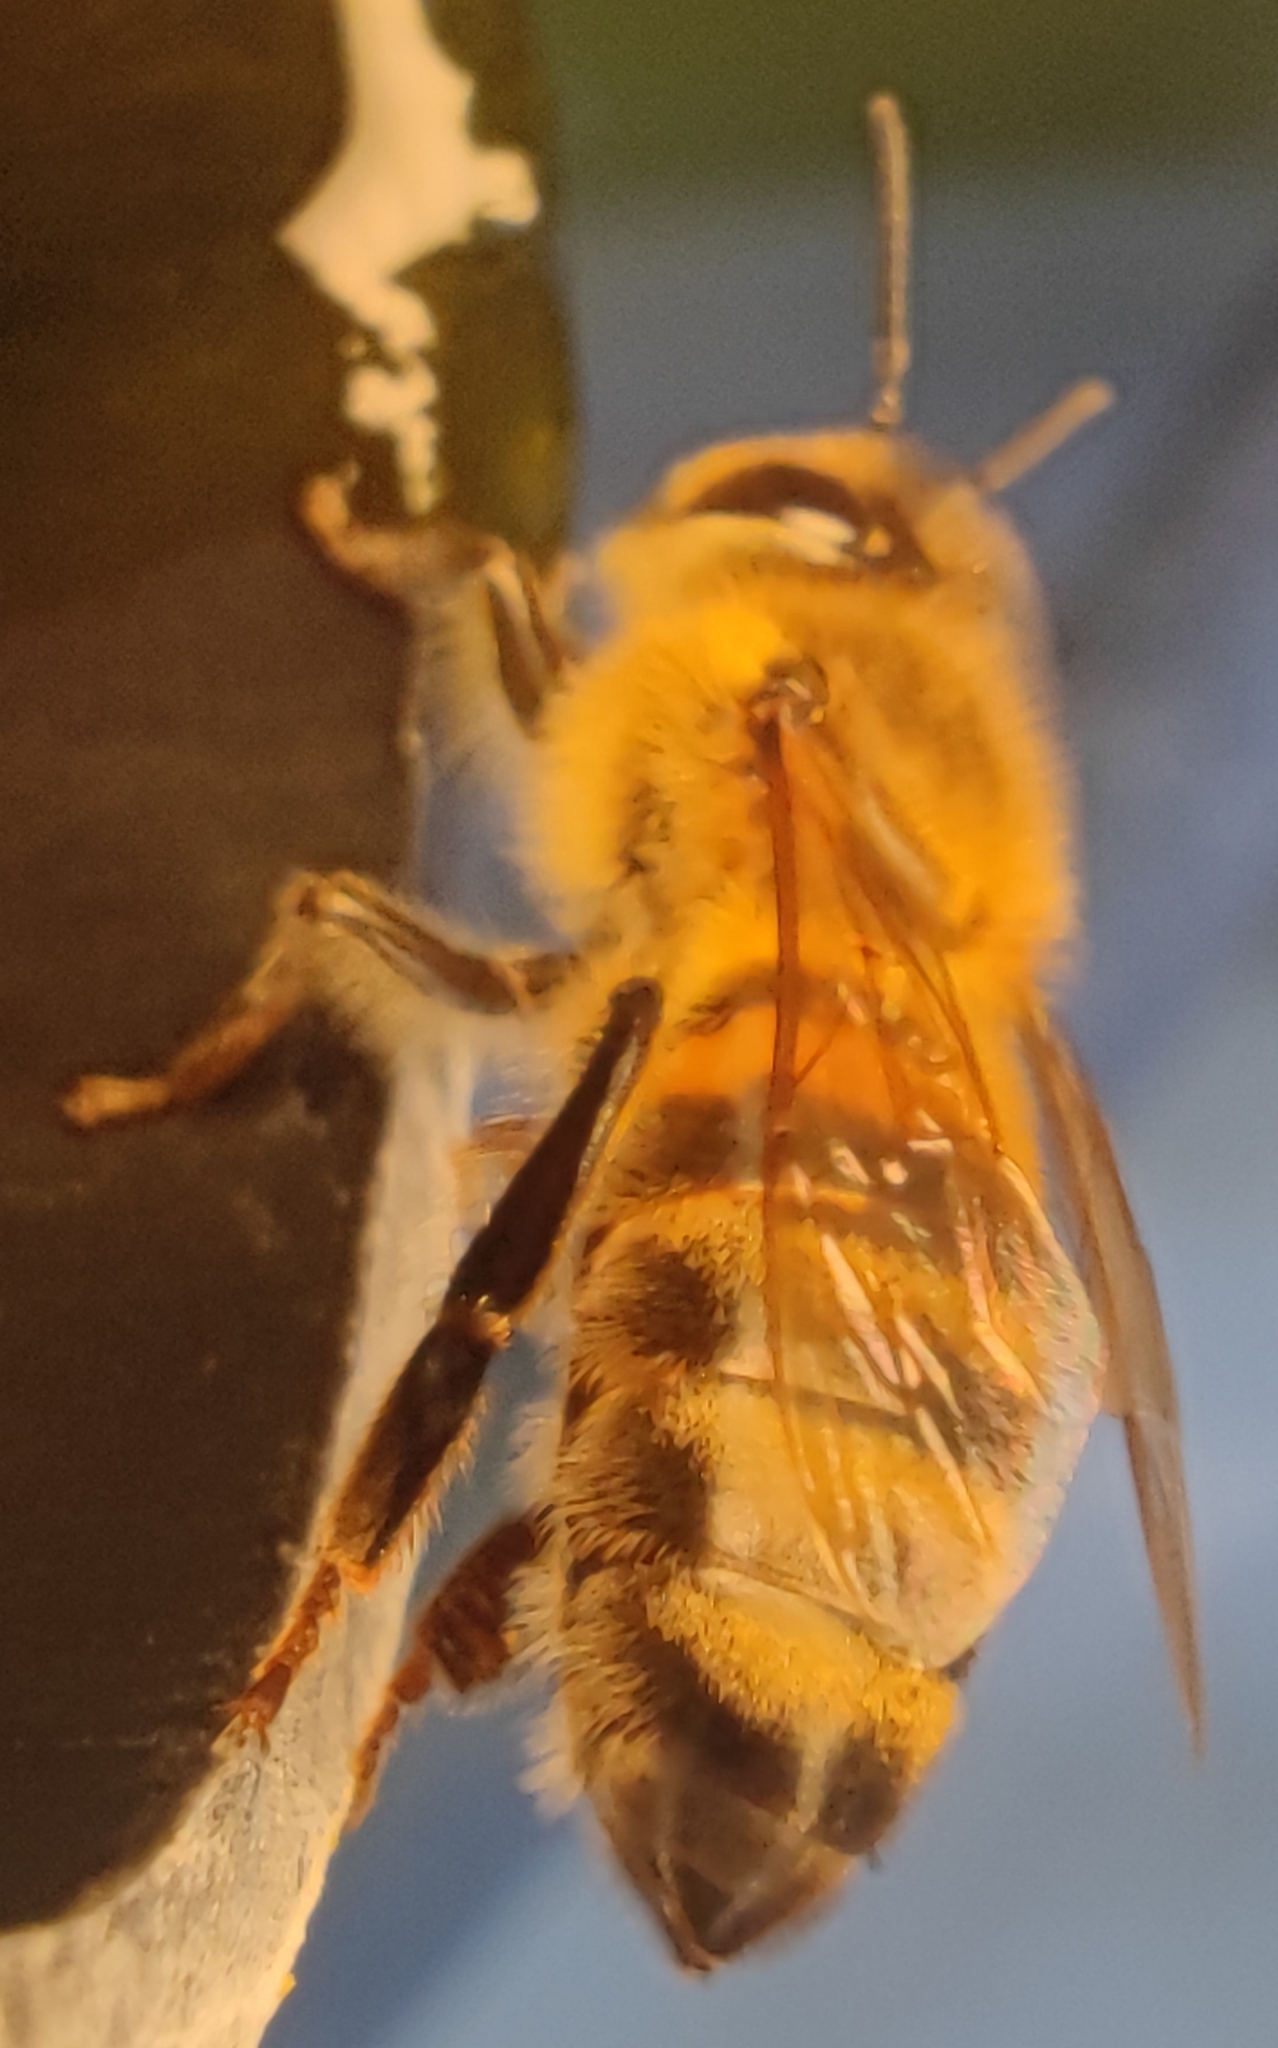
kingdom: Animalia
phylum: Arthropoda
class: Insecta
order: Hymenoptera
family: Apidae
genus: Apis
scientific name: Apis mellifera
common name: Honey bee
